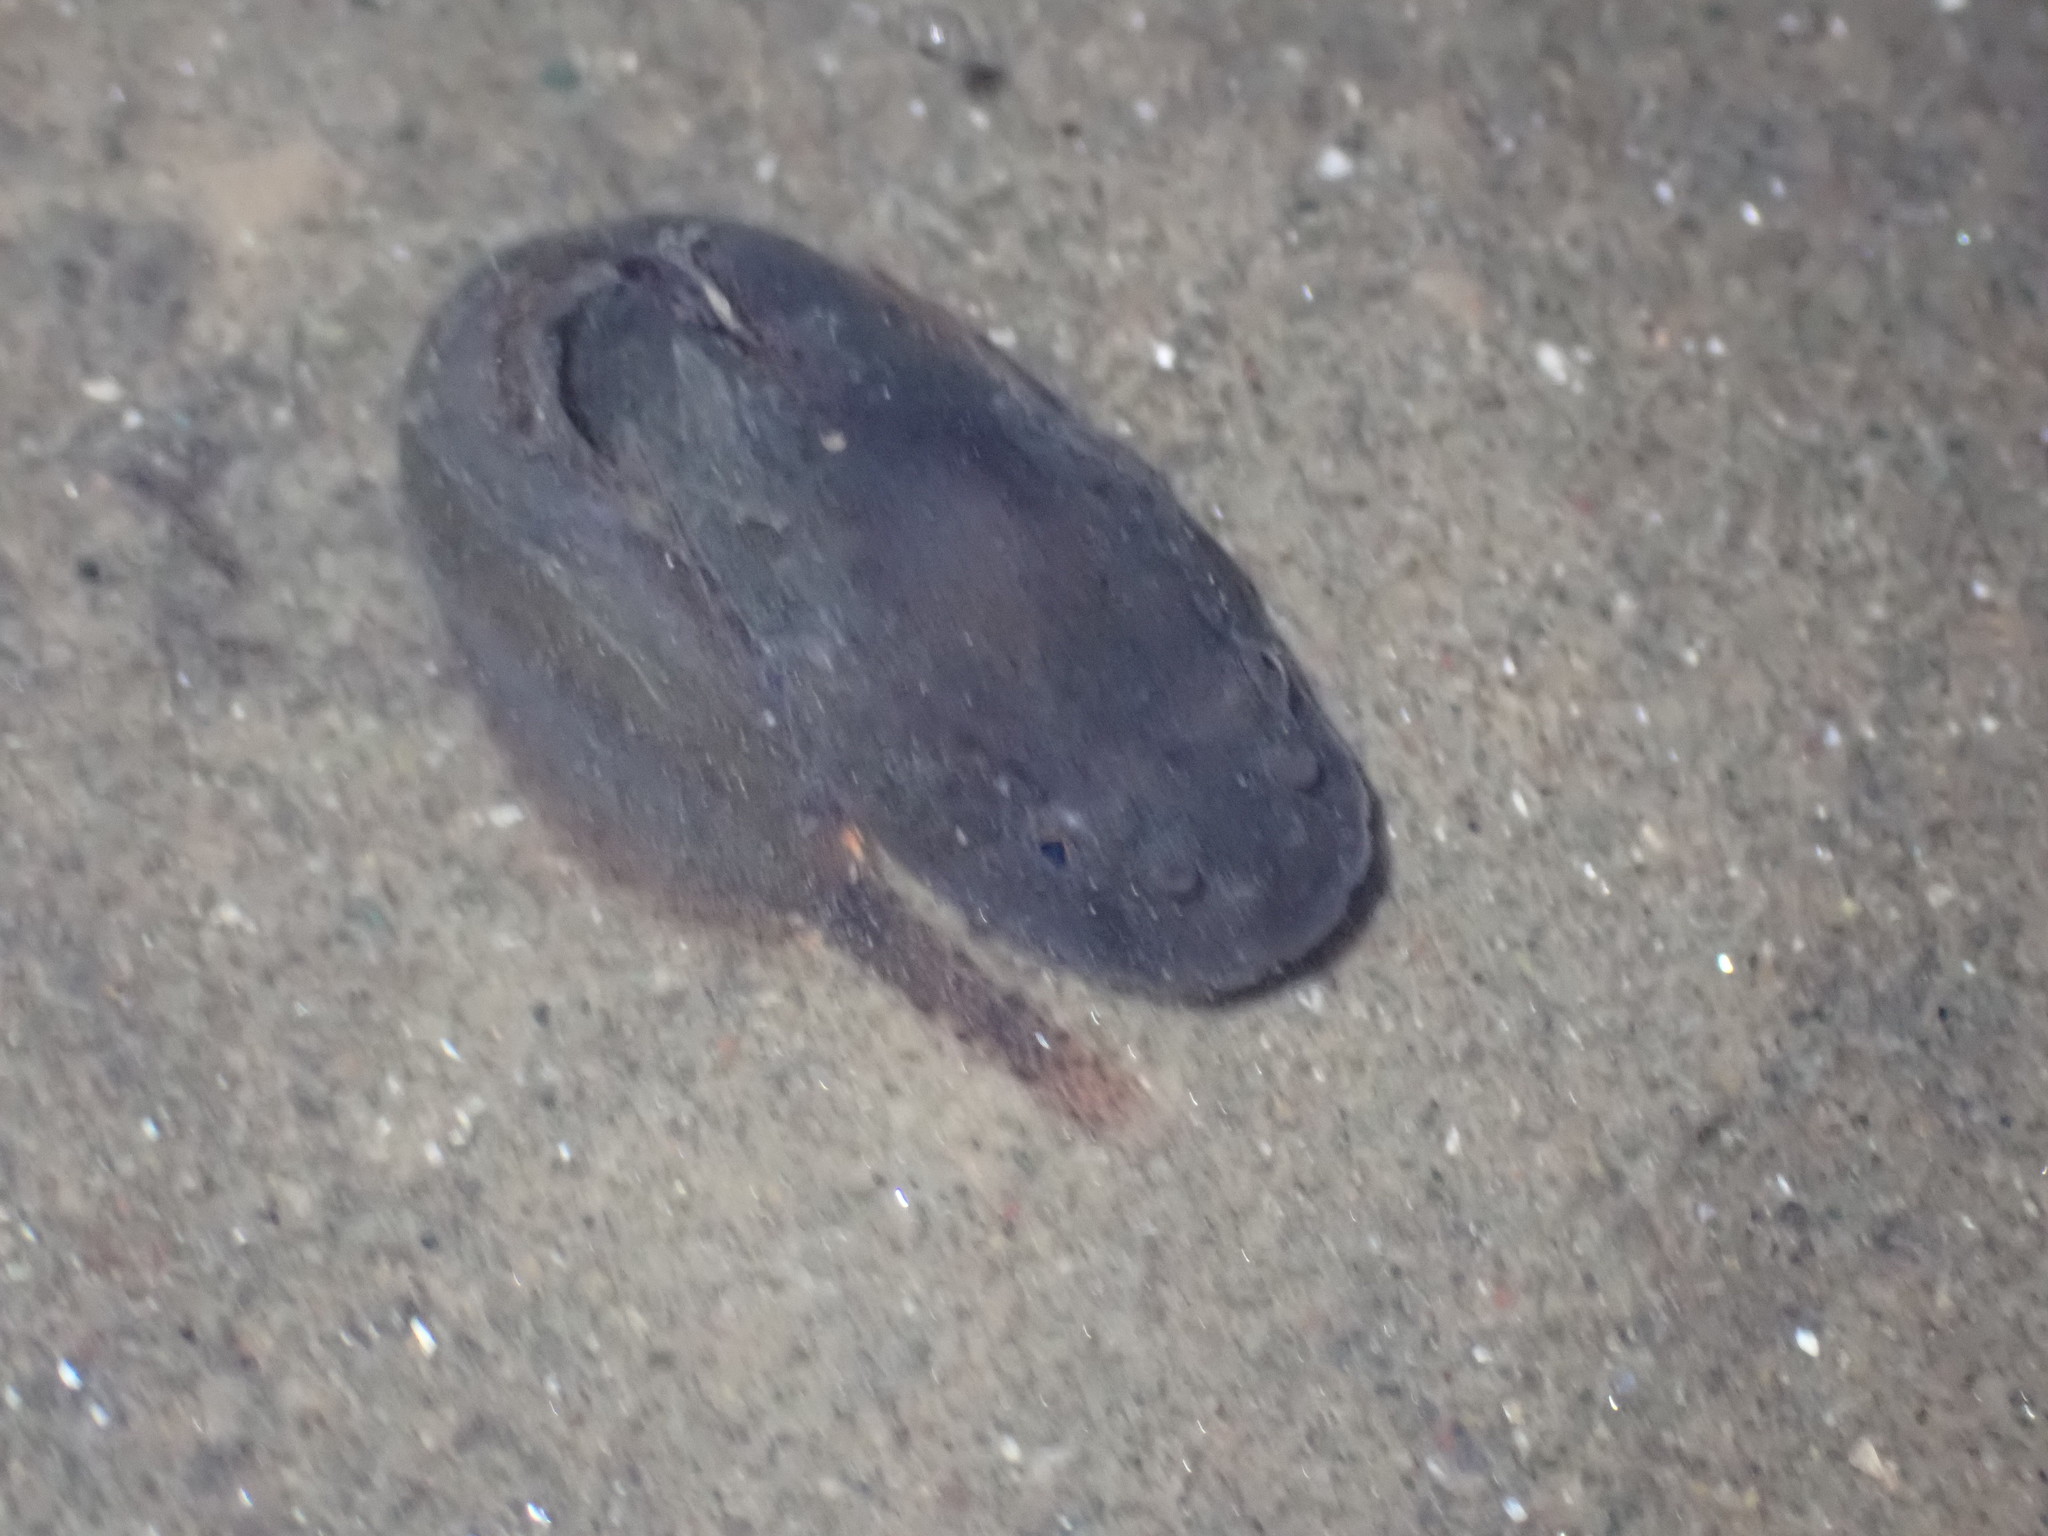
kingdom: Animalia
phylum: Chordata
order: Scorpaeniformes
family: Liparidae
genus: Liparis
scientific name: Liparis atlanticus
